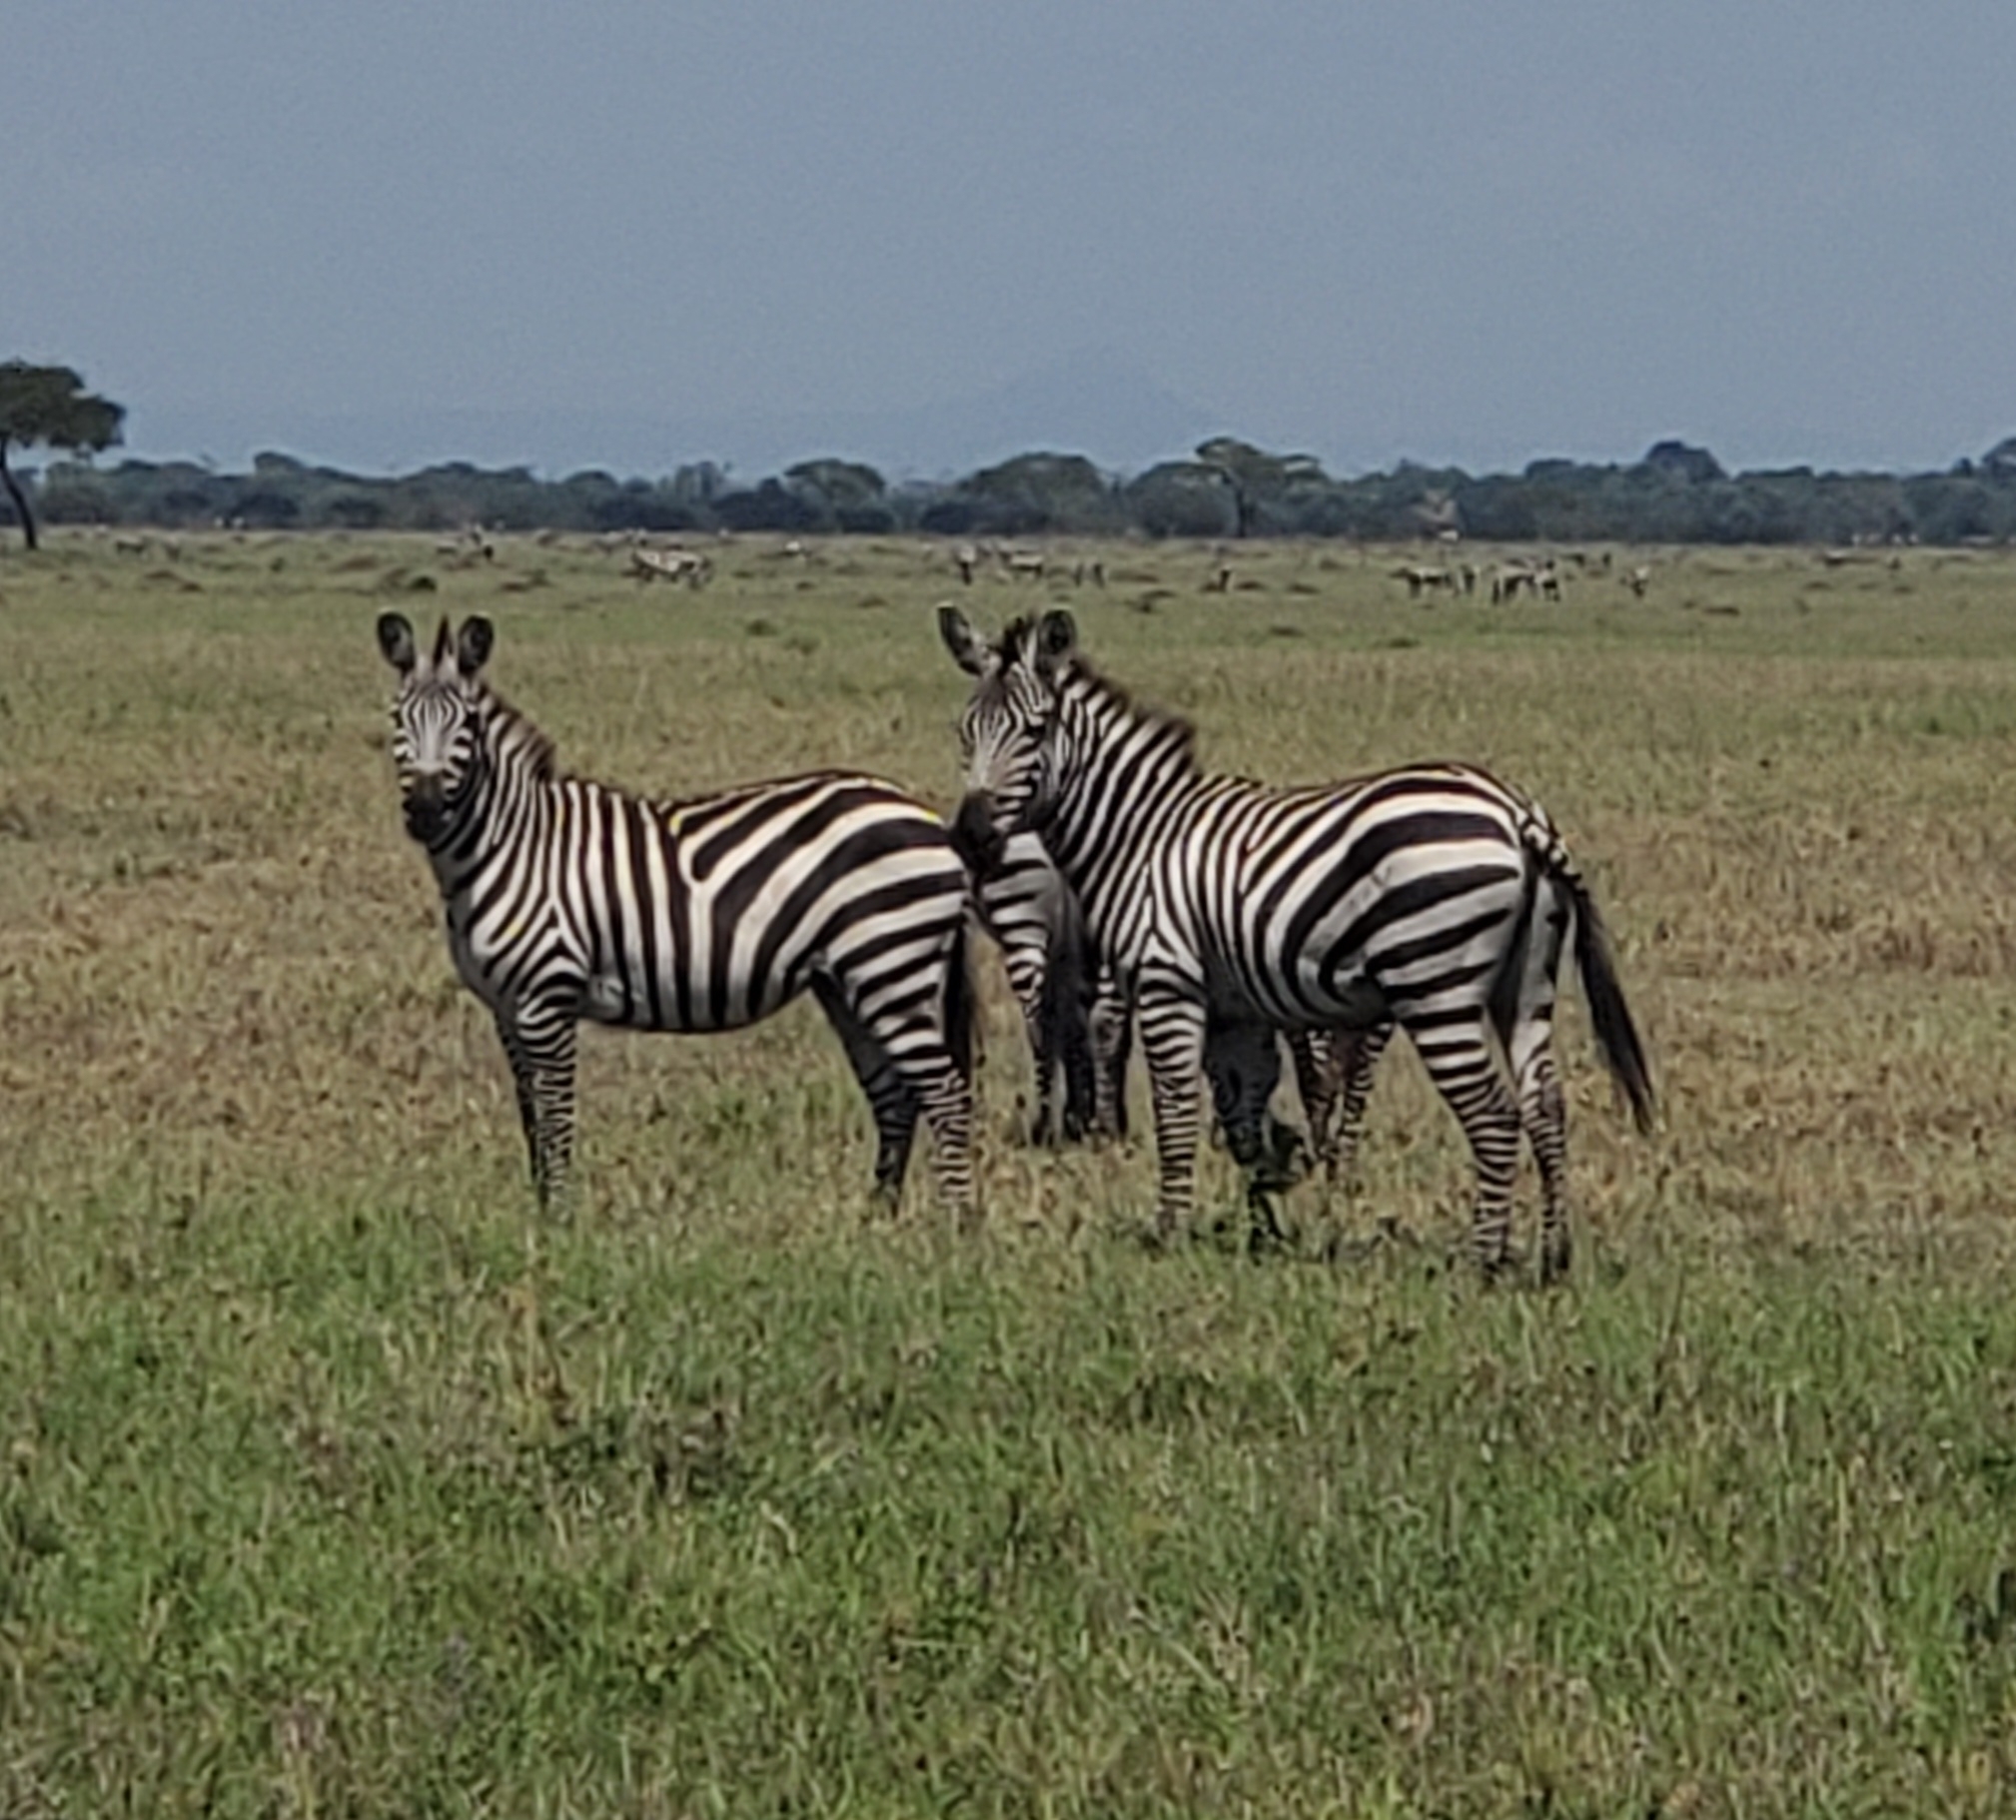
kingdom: Animalia
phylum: Chordata
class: Mammalia
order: Perissodactyla
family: Equidae
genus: Equus
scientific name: Equus quagga
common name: Plains zebra
